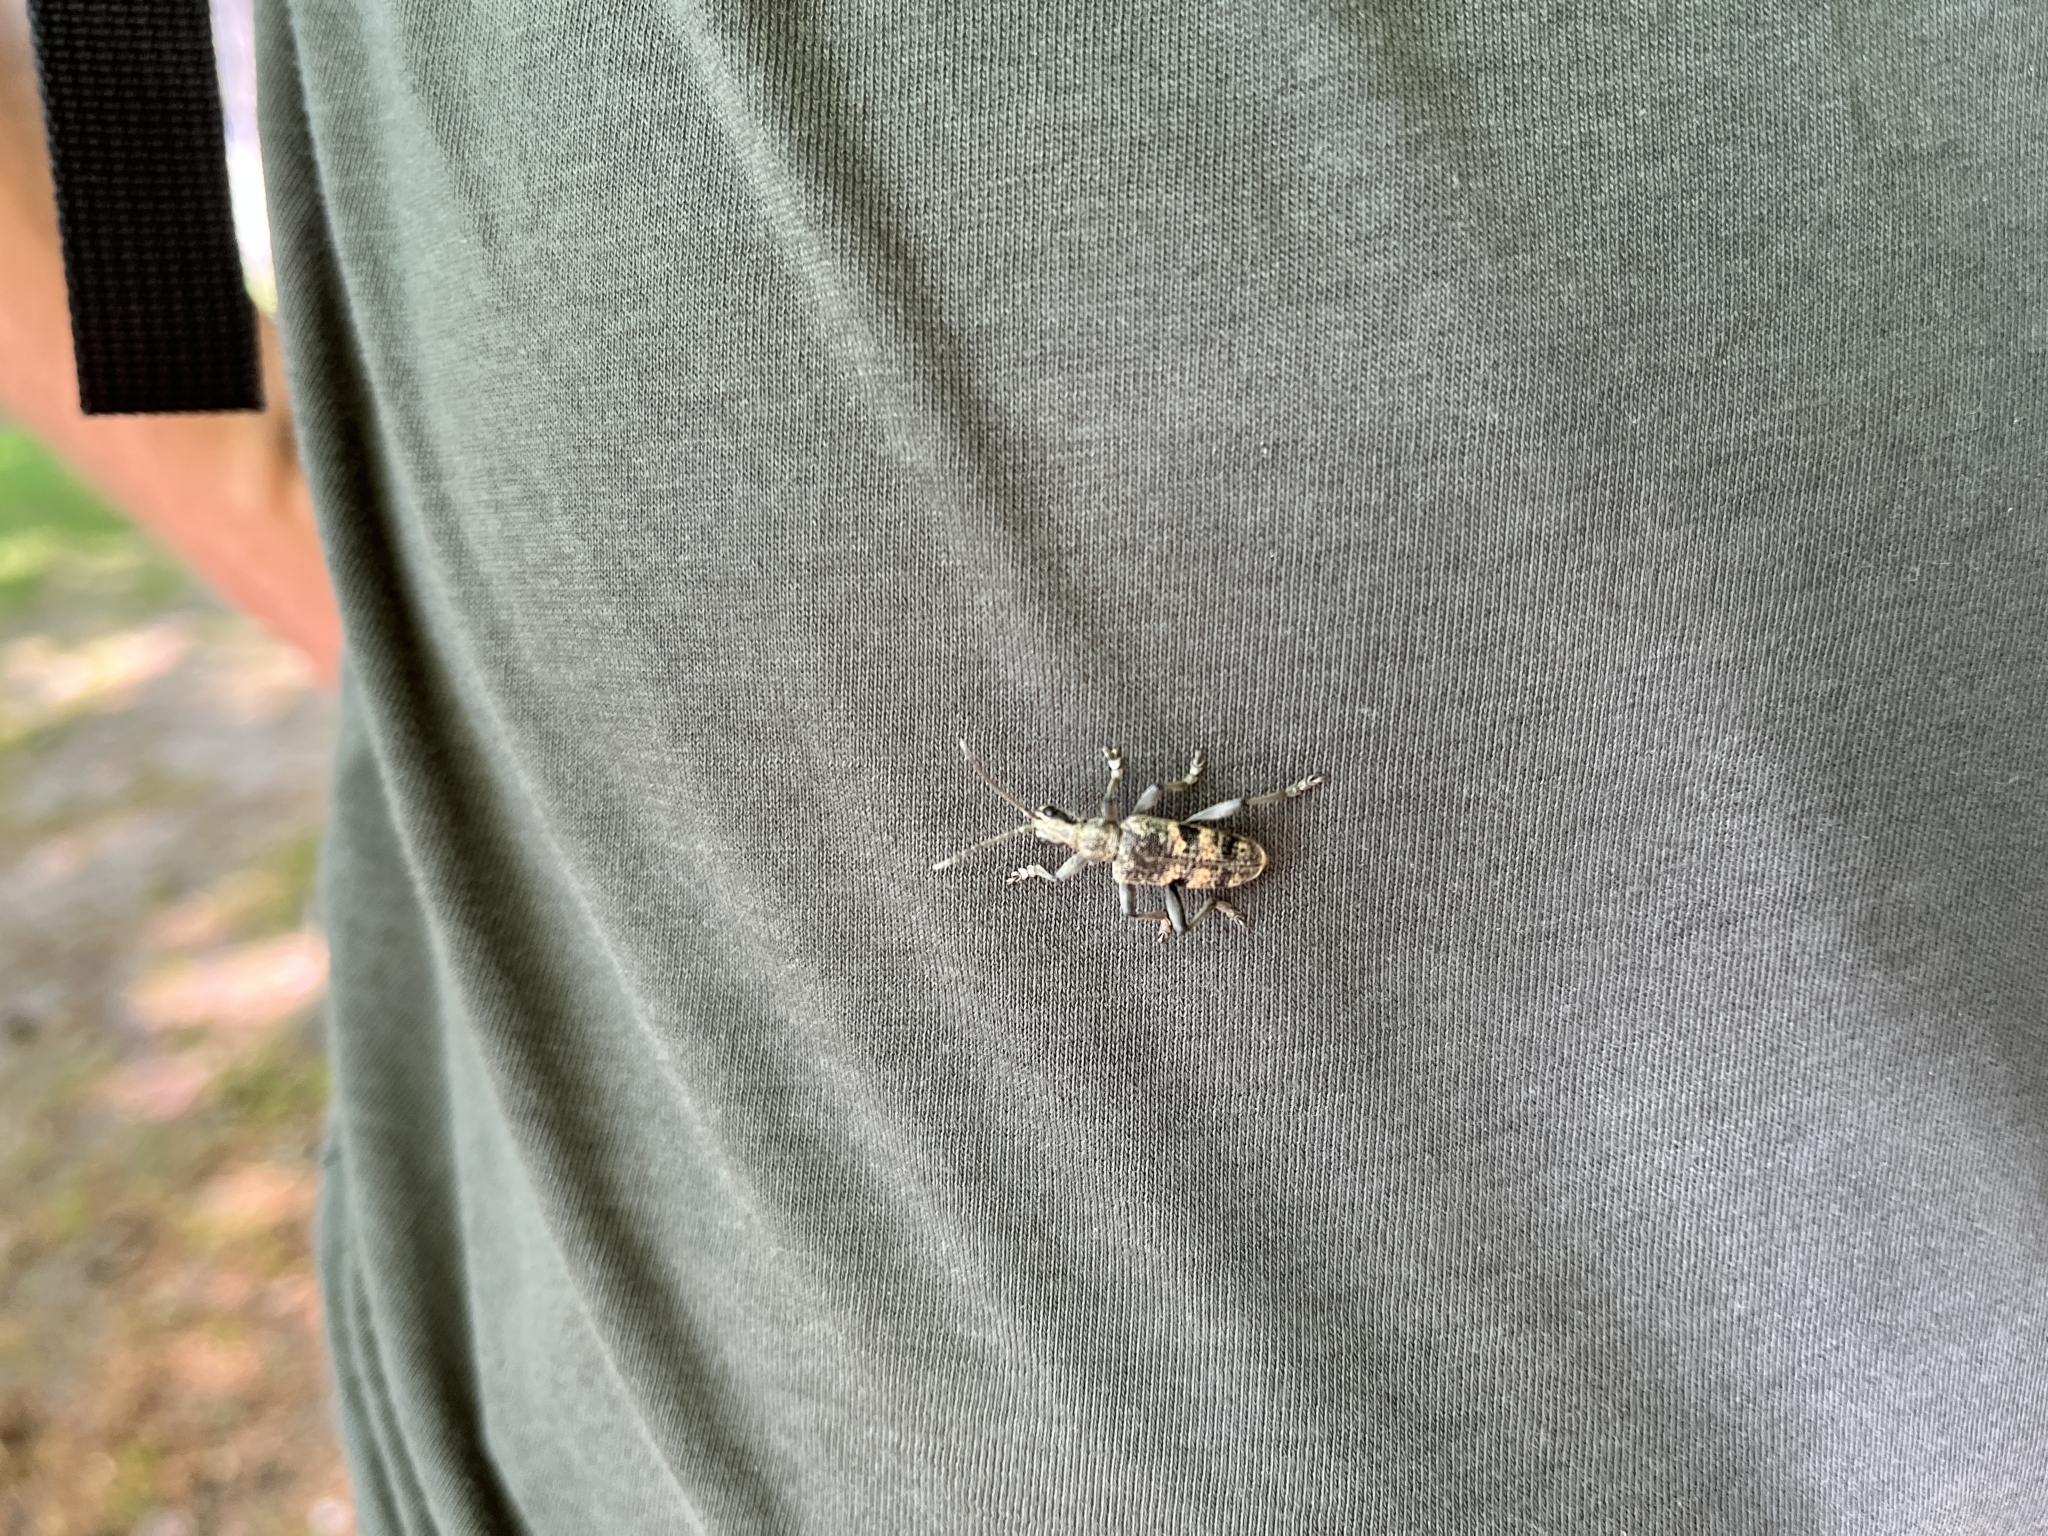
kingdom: Animalia
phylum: Arthropoda
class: Insecta
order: Coleoptera
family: Cerambycidae
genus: Rhagium
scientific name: Rhagium mordax
